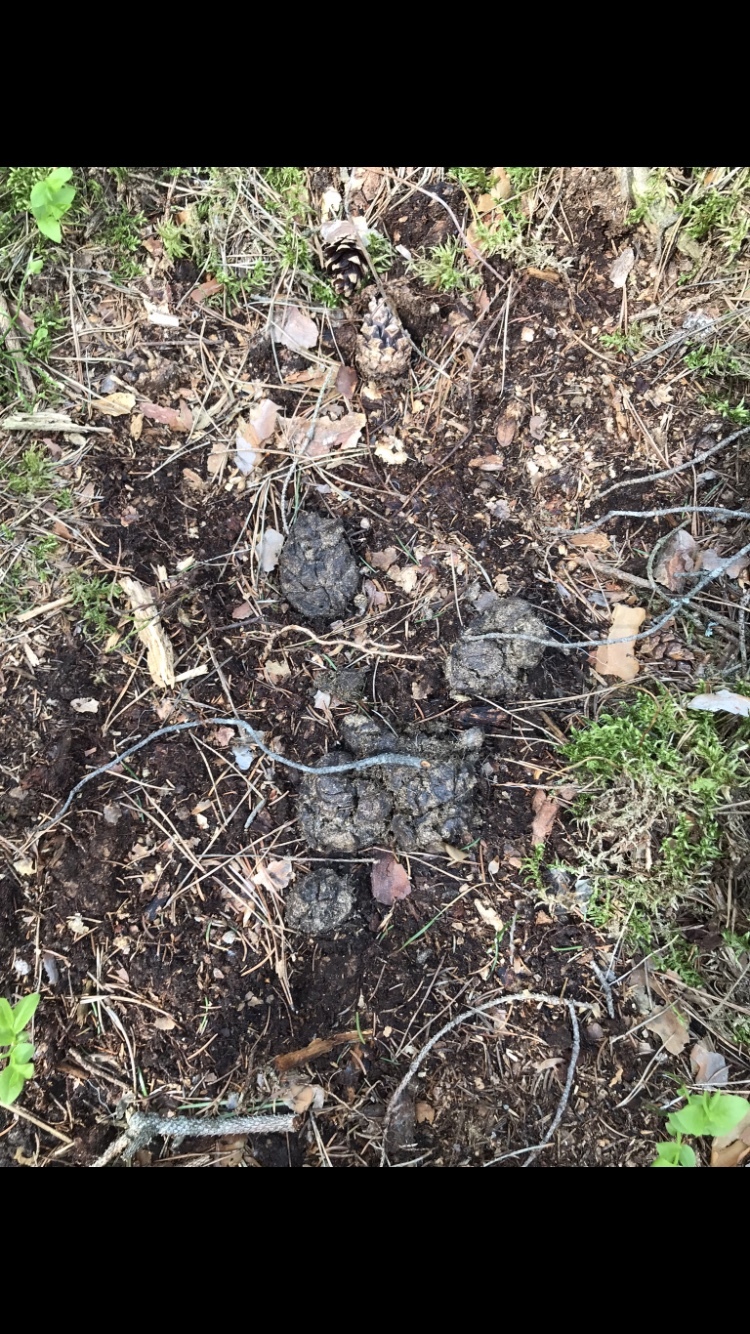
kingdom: Animalia
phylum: Chordata
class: Mammalia
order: Artiodactyla
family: Suidae
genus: Sus
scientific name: Sus scrofa
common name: Wild boar
